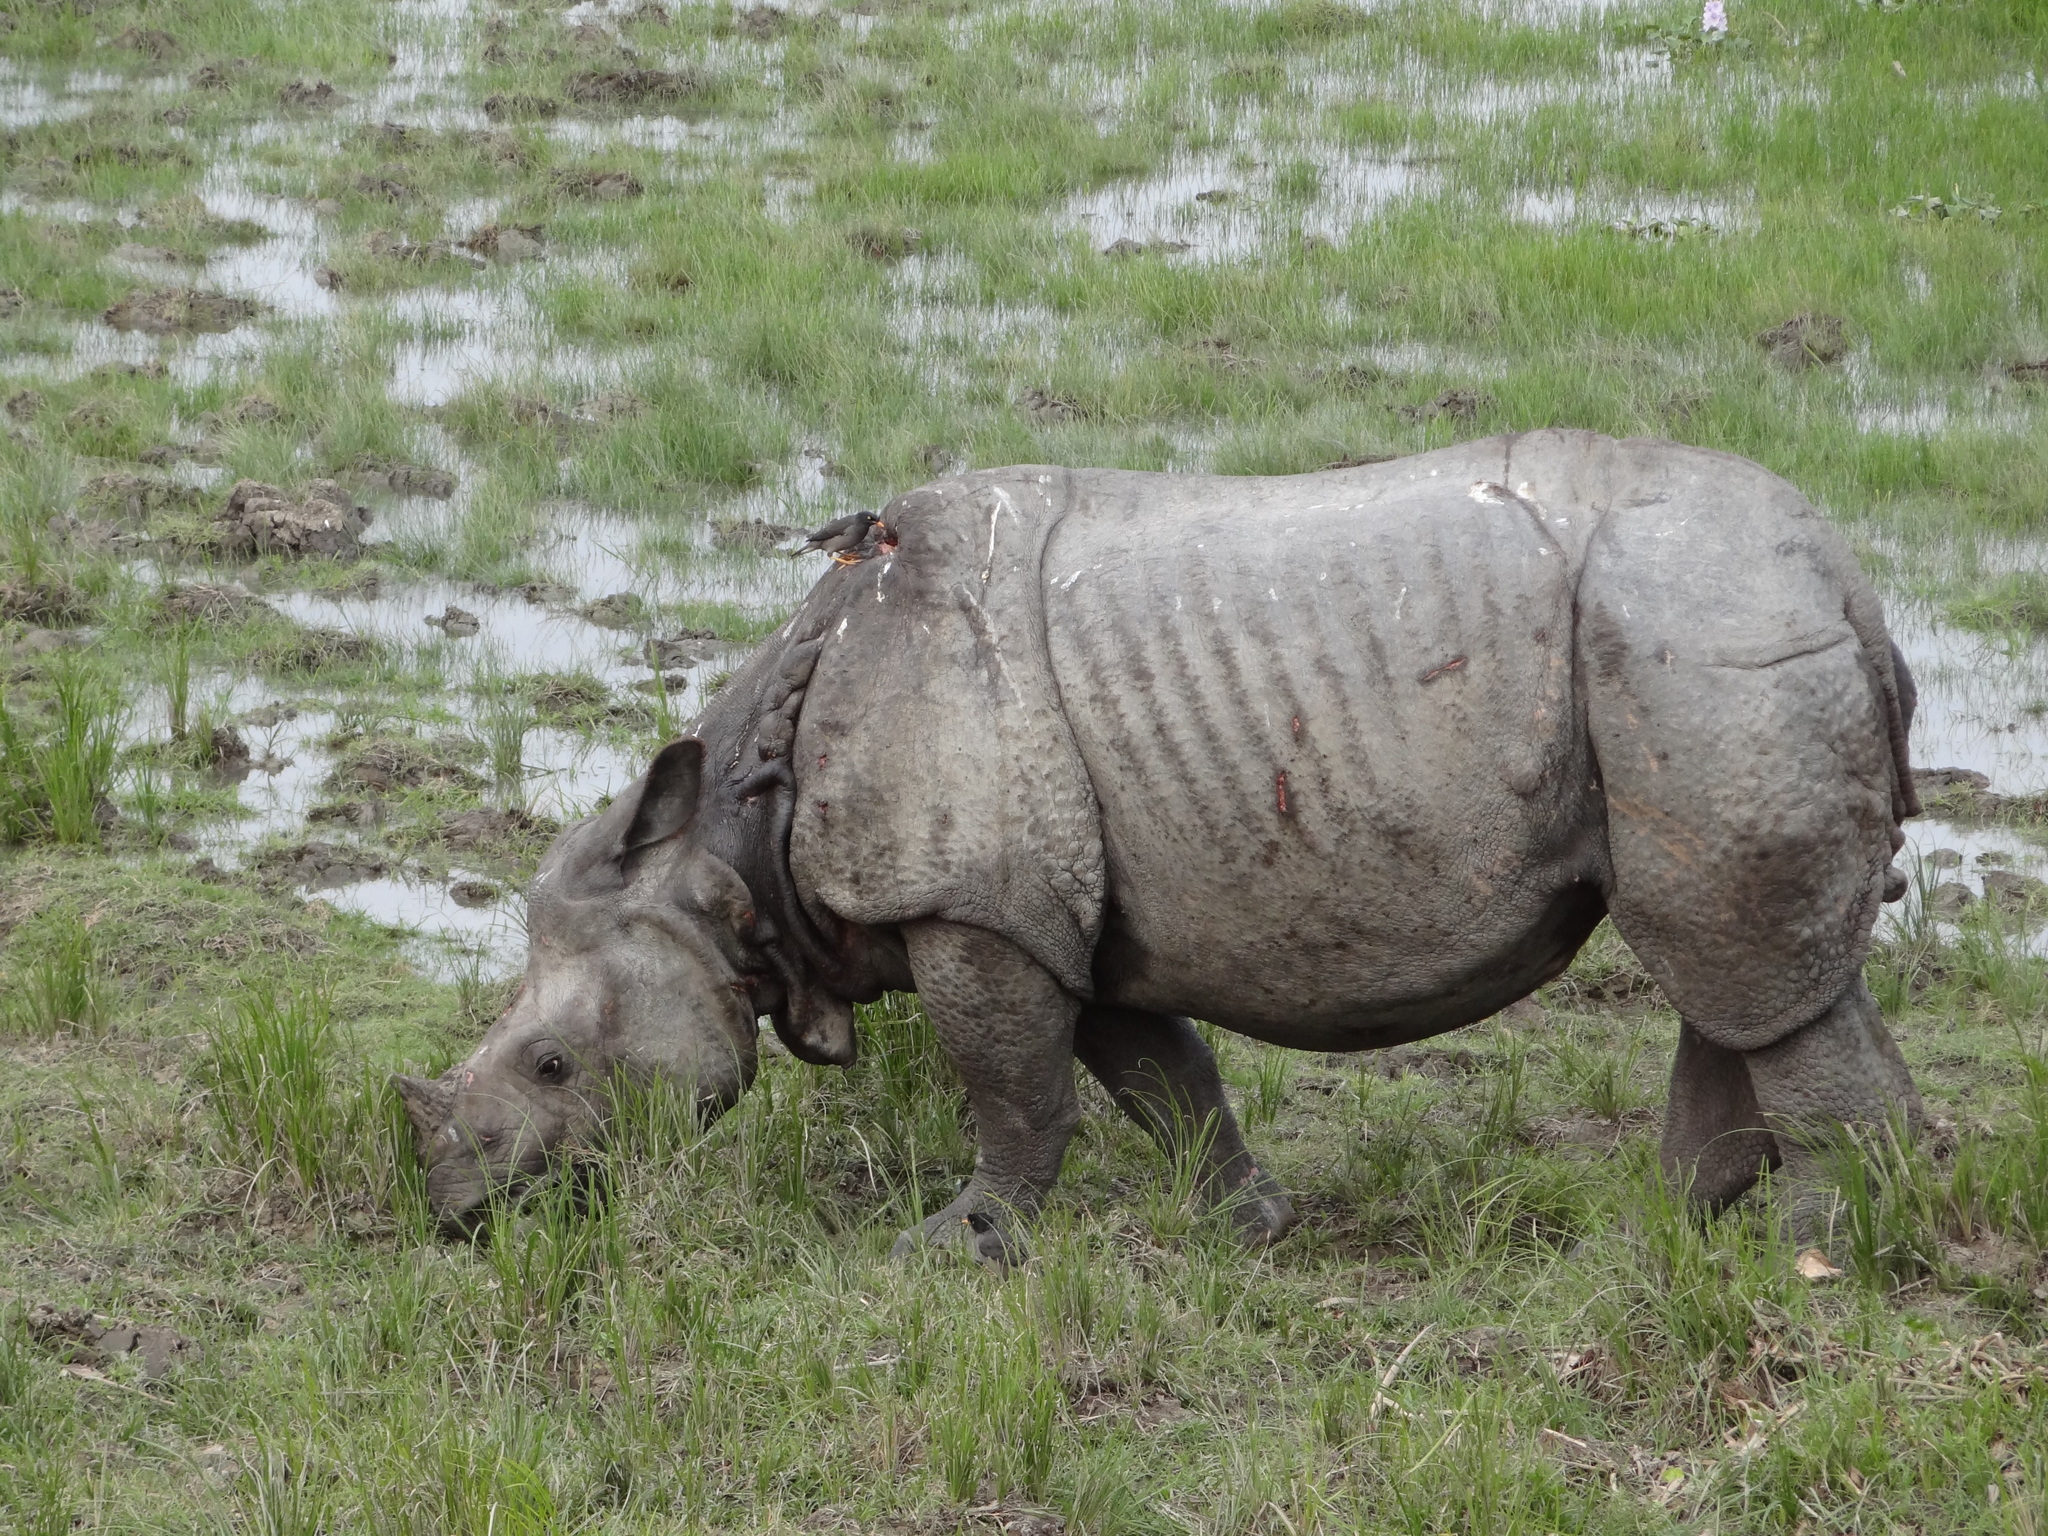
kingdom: Animalia
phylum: Chordata
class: Mammalia
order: Perissodactyla
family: Rhinocerotidae
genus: Rhinoceros
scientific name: Rhinoceros unicornis
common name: Indian rhinoceros
